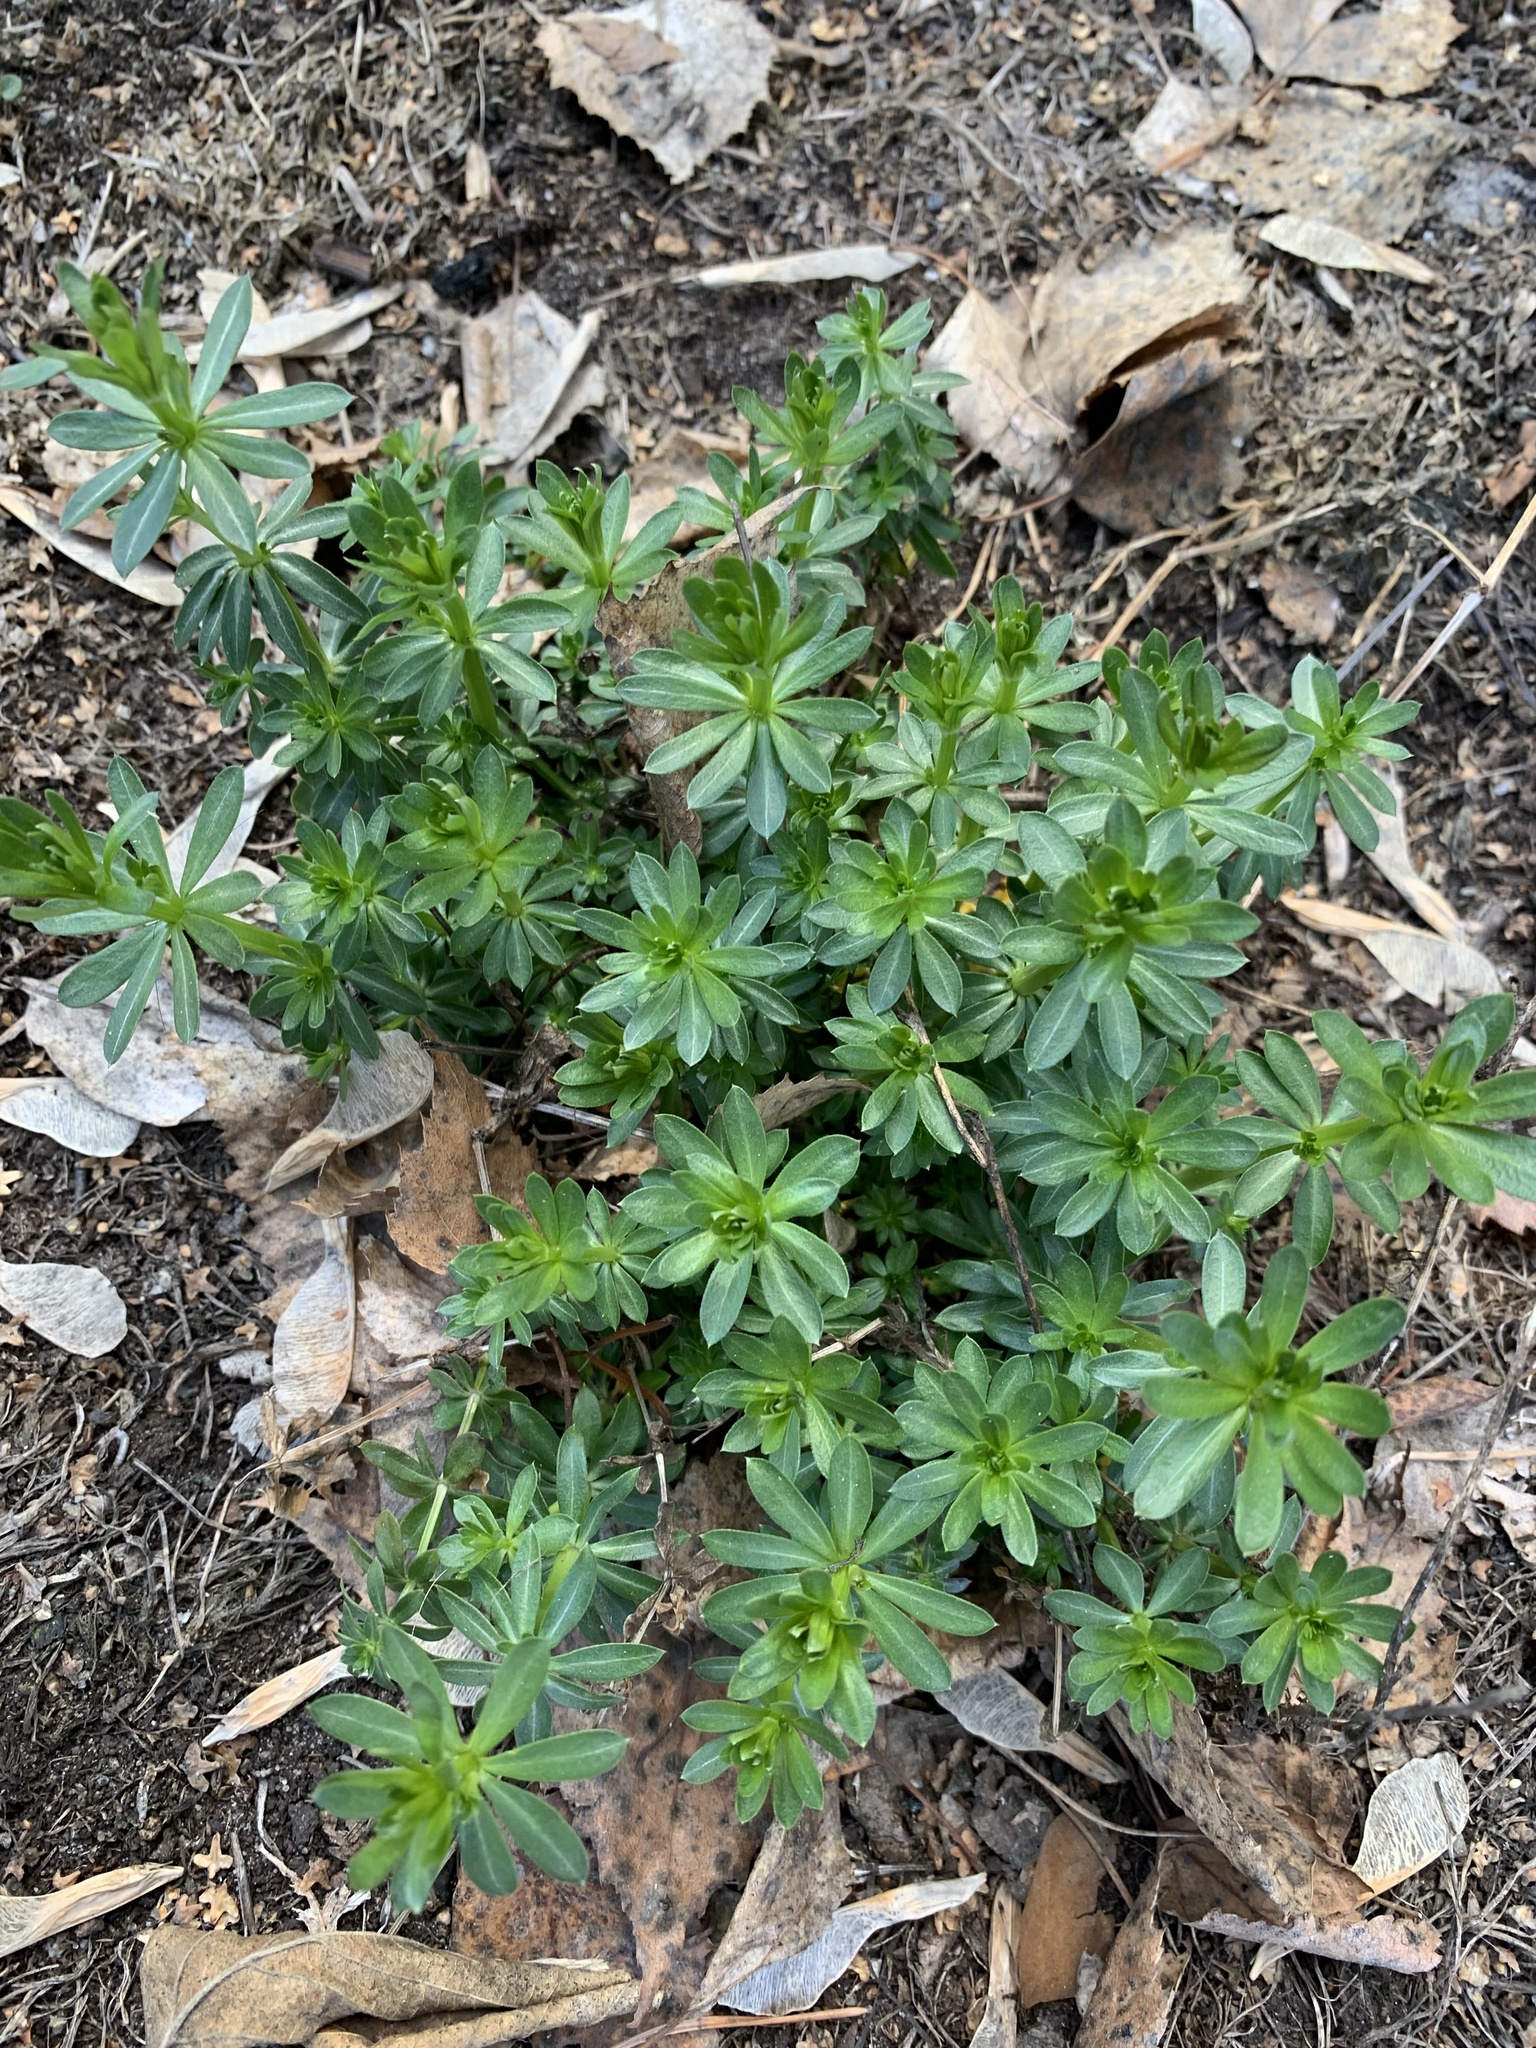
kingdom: Plantae
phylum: Tracheophyta
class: Magnoliopsida
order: Gentianales
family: Rubiaceae
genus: Galium
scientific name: Galium mollugo
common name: Hedge bedstraw
